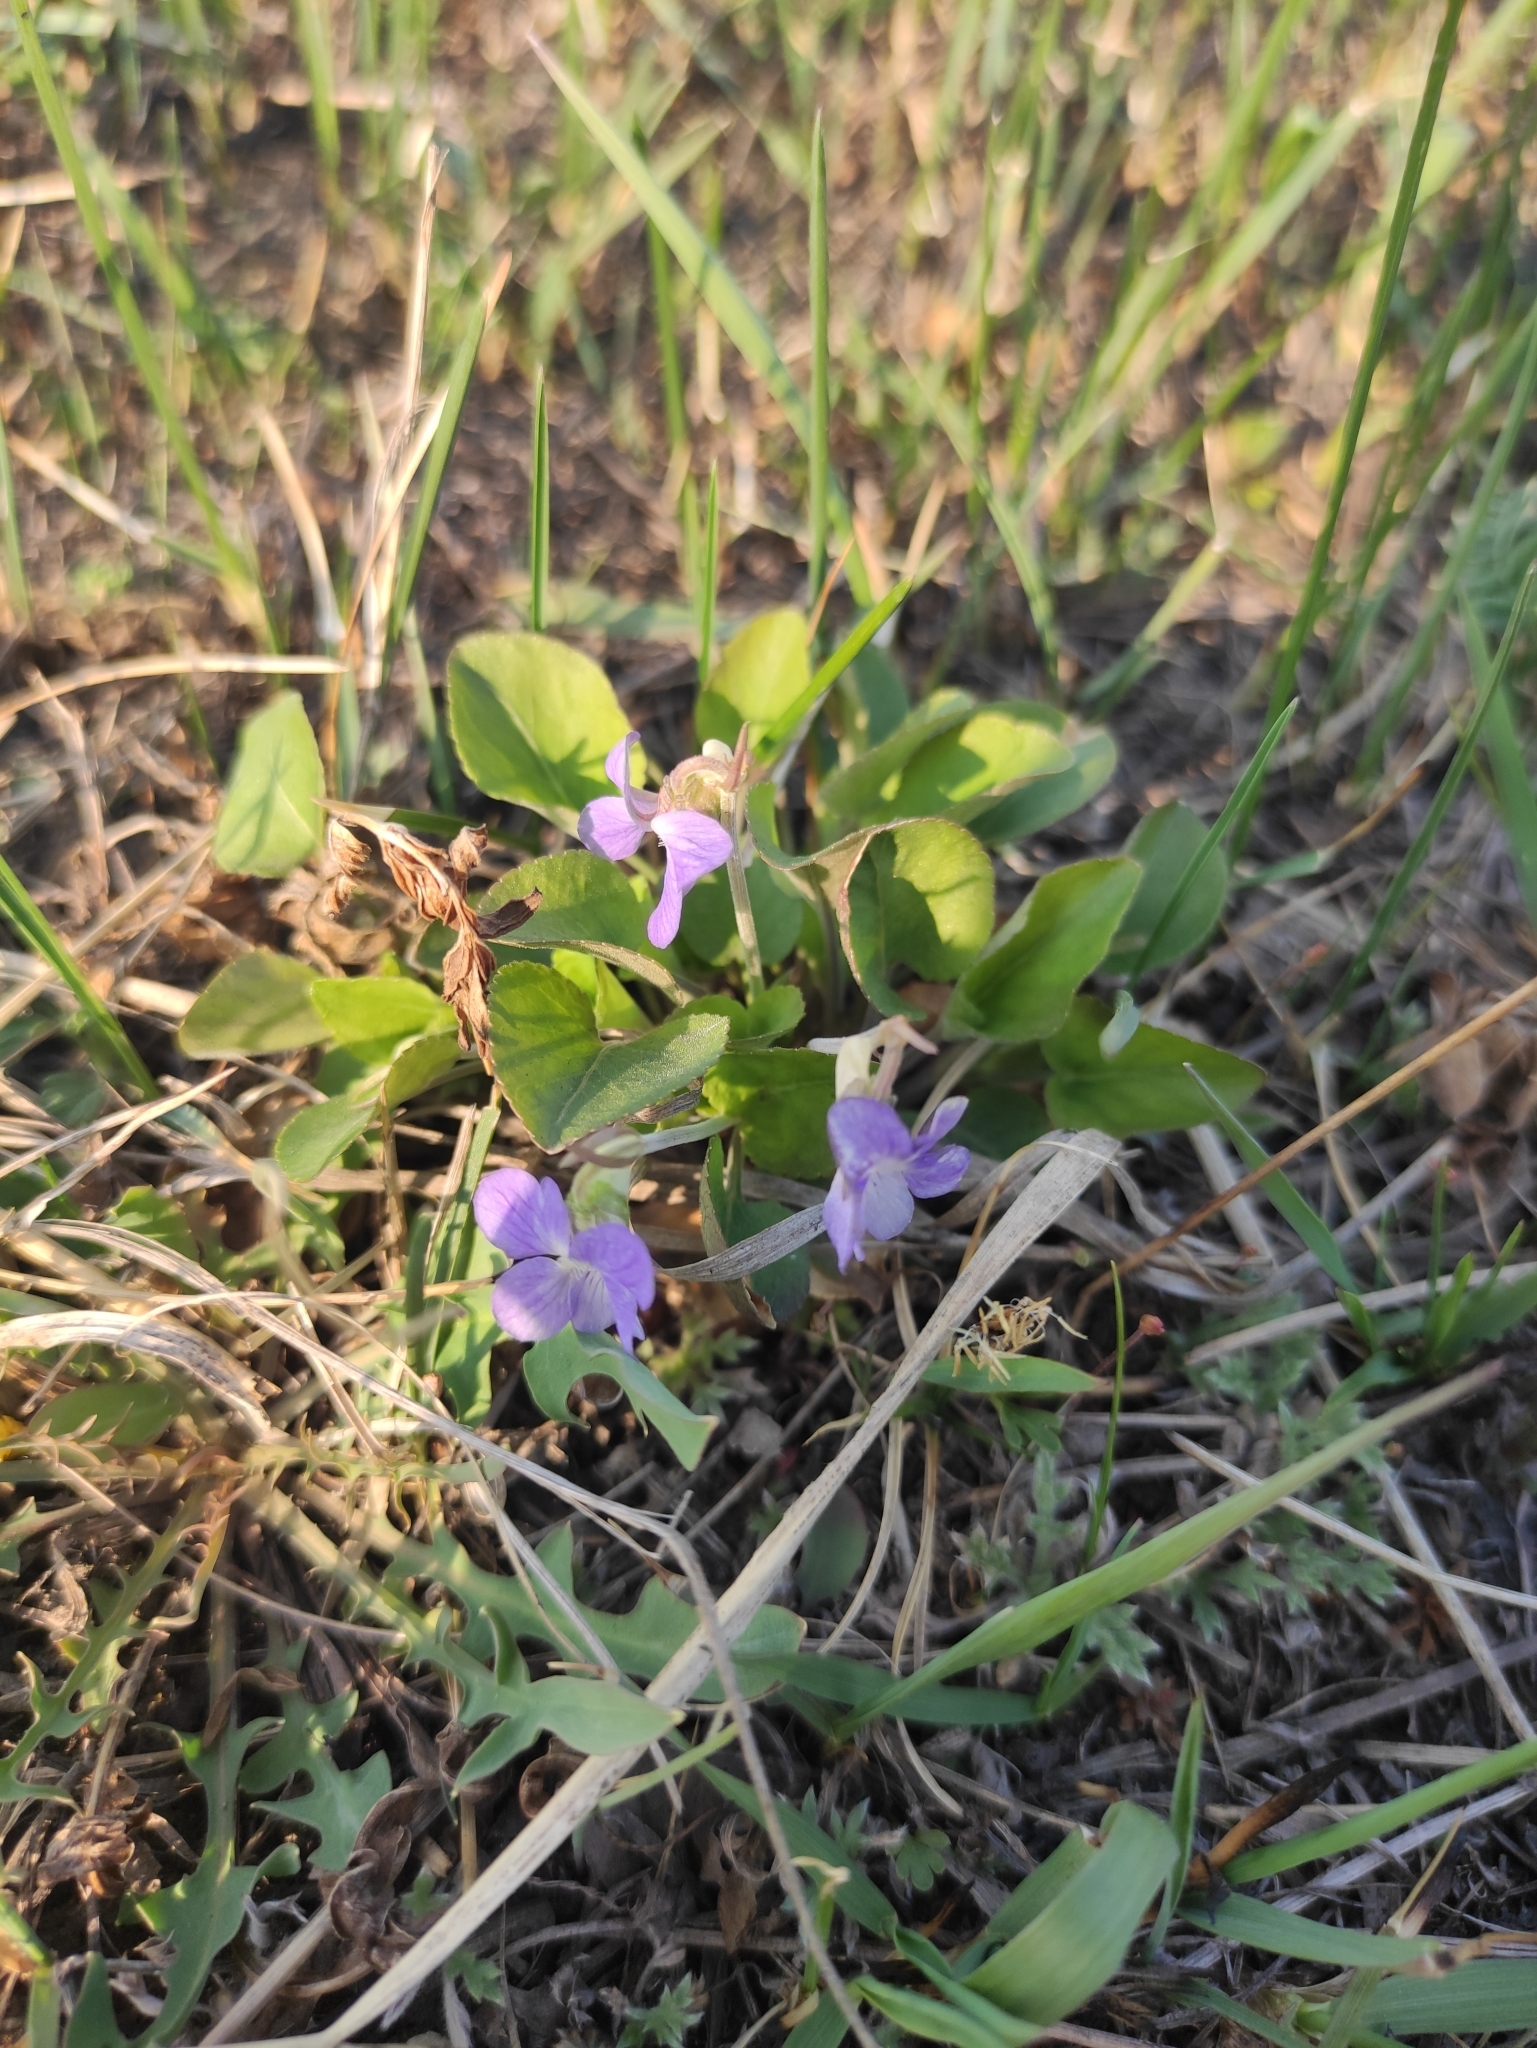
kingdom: Plantae
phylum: Tracheophyta
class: Magnoliopsida
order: Malpighiales
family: Violaceae
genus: Viola
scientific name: Viola rupestris
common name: Teesdale violet
